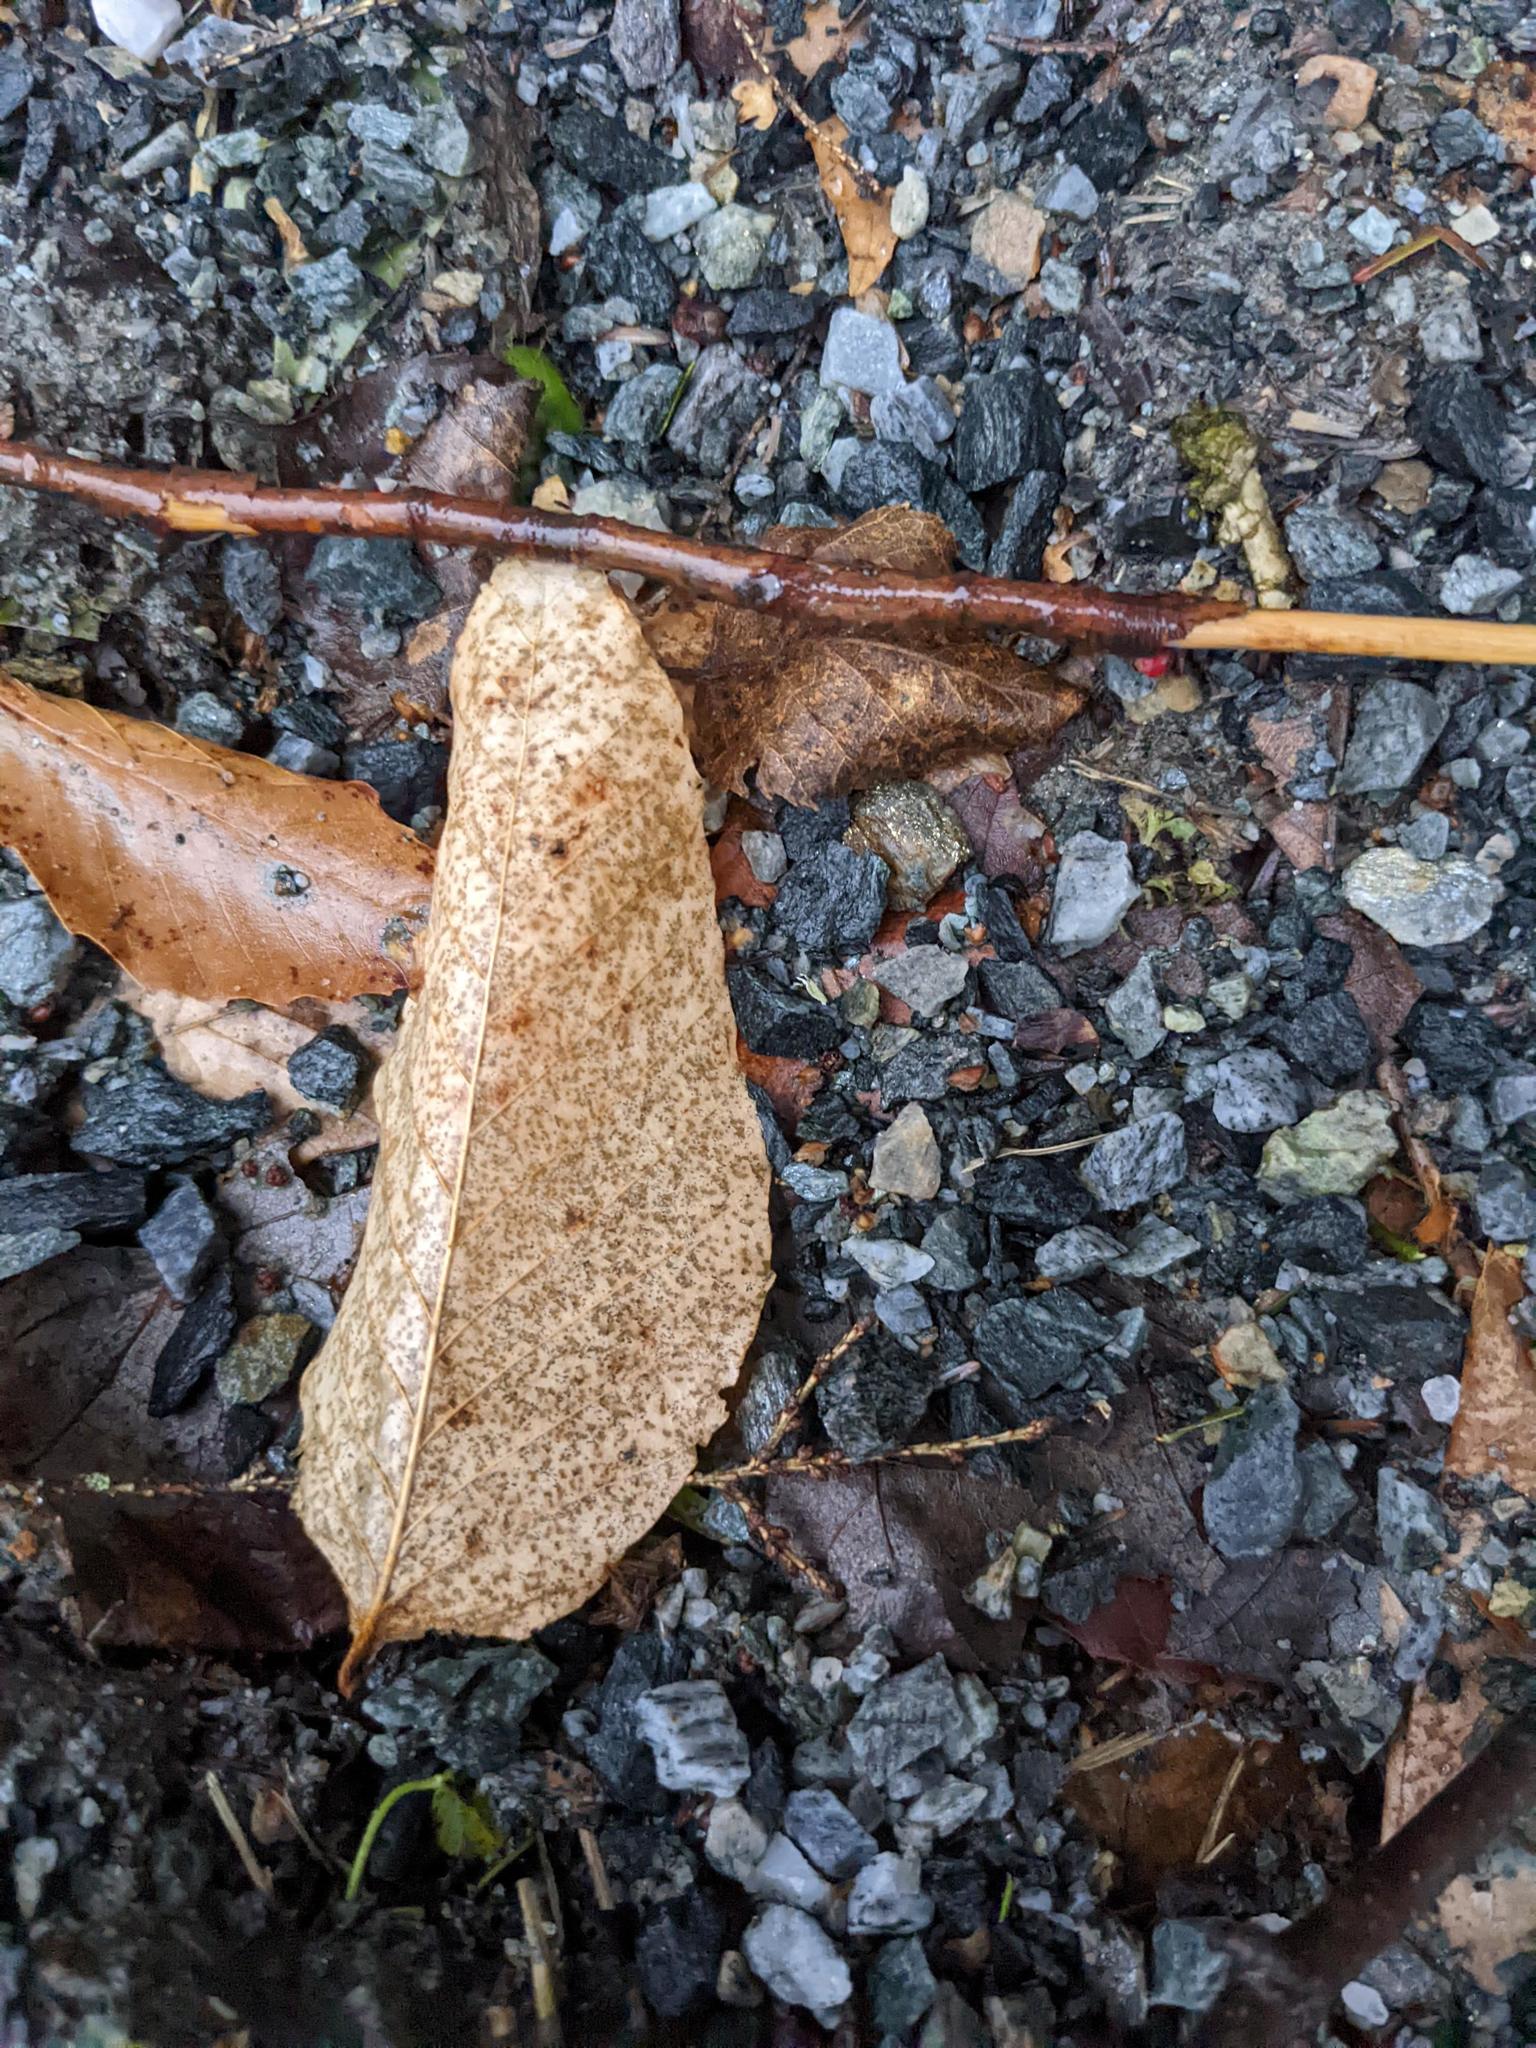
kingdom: Plantae
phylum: Tracheophyta
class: Magnoliopsida
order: Fagales
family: Fagaceae
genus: Fagus
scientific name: Fagus grandifolia
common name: American beech
